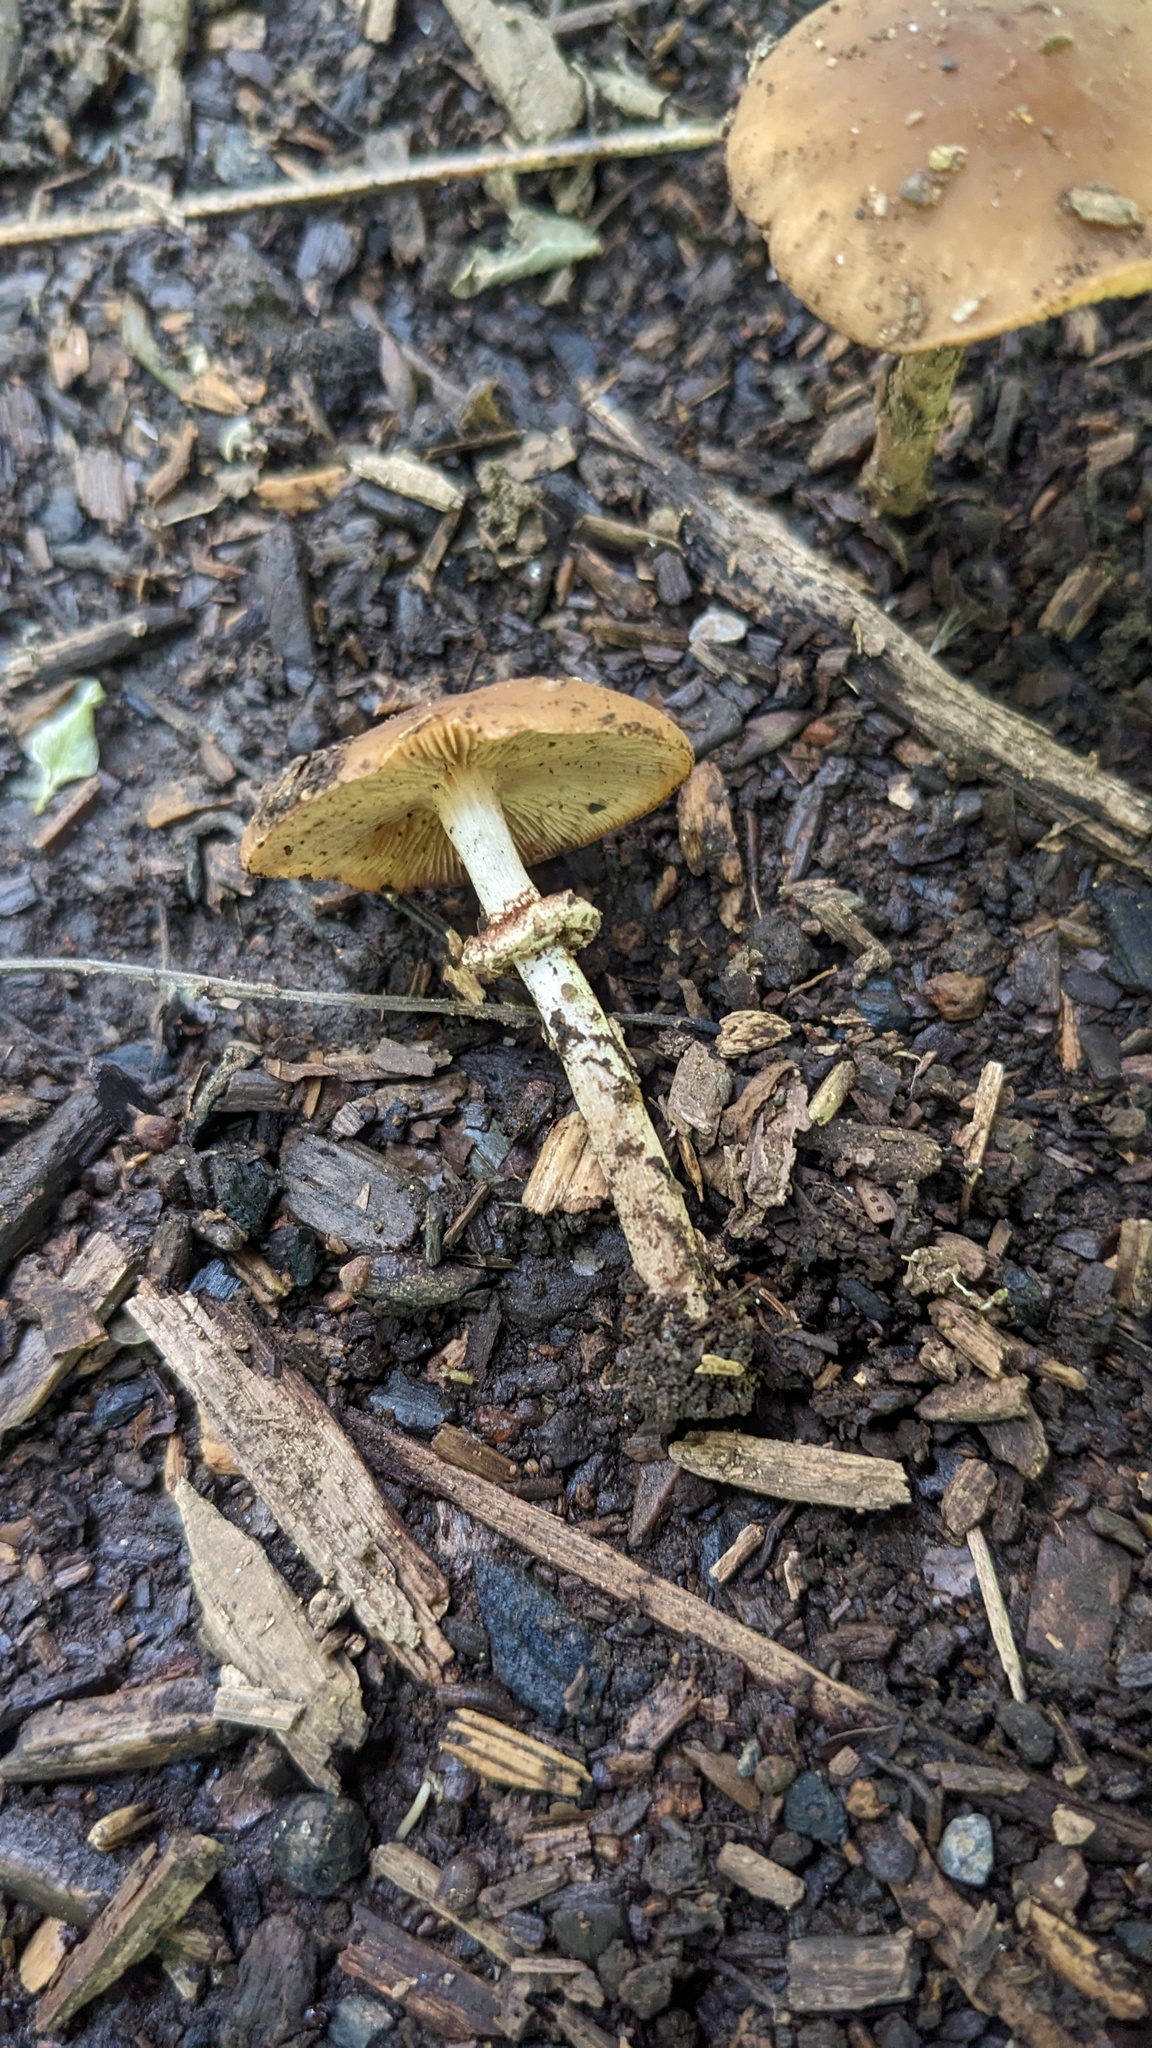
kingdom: Fungi
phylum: Basidiomycota
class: Agaricomycetes
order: Agaricales
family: Tubariaceae
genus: Cyclocybe
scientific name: Cyclocybe erebia
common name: Dark fieldcap
